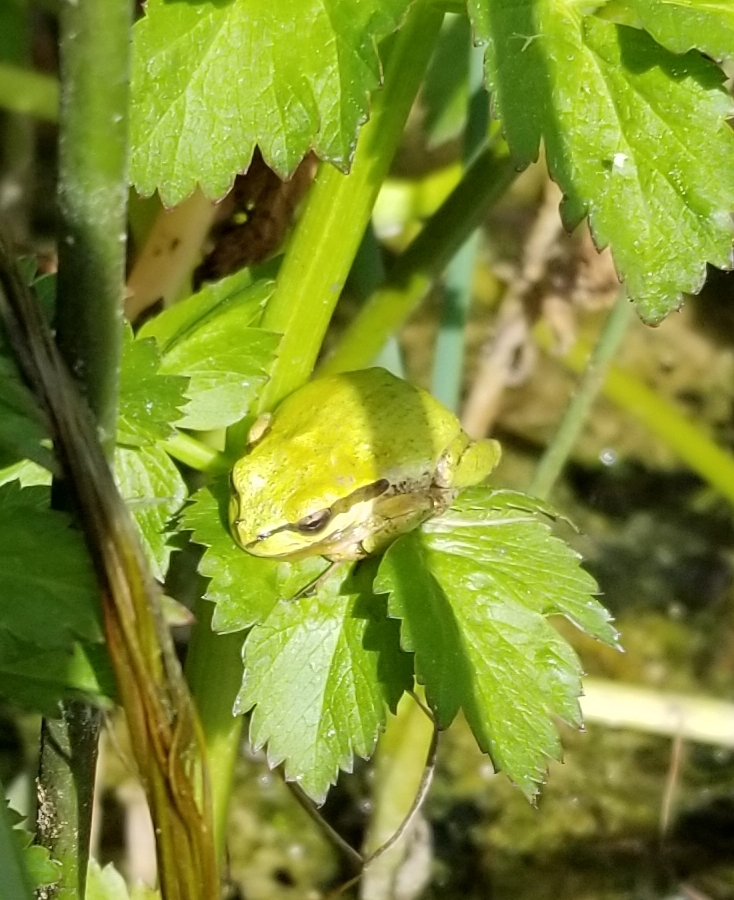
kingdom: Animalia
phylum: Chordata
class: Amphibia
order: Anura
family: Hylidae
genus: Pseudacris
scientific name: Pseudacris regilla
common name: Pacific chorus frog
